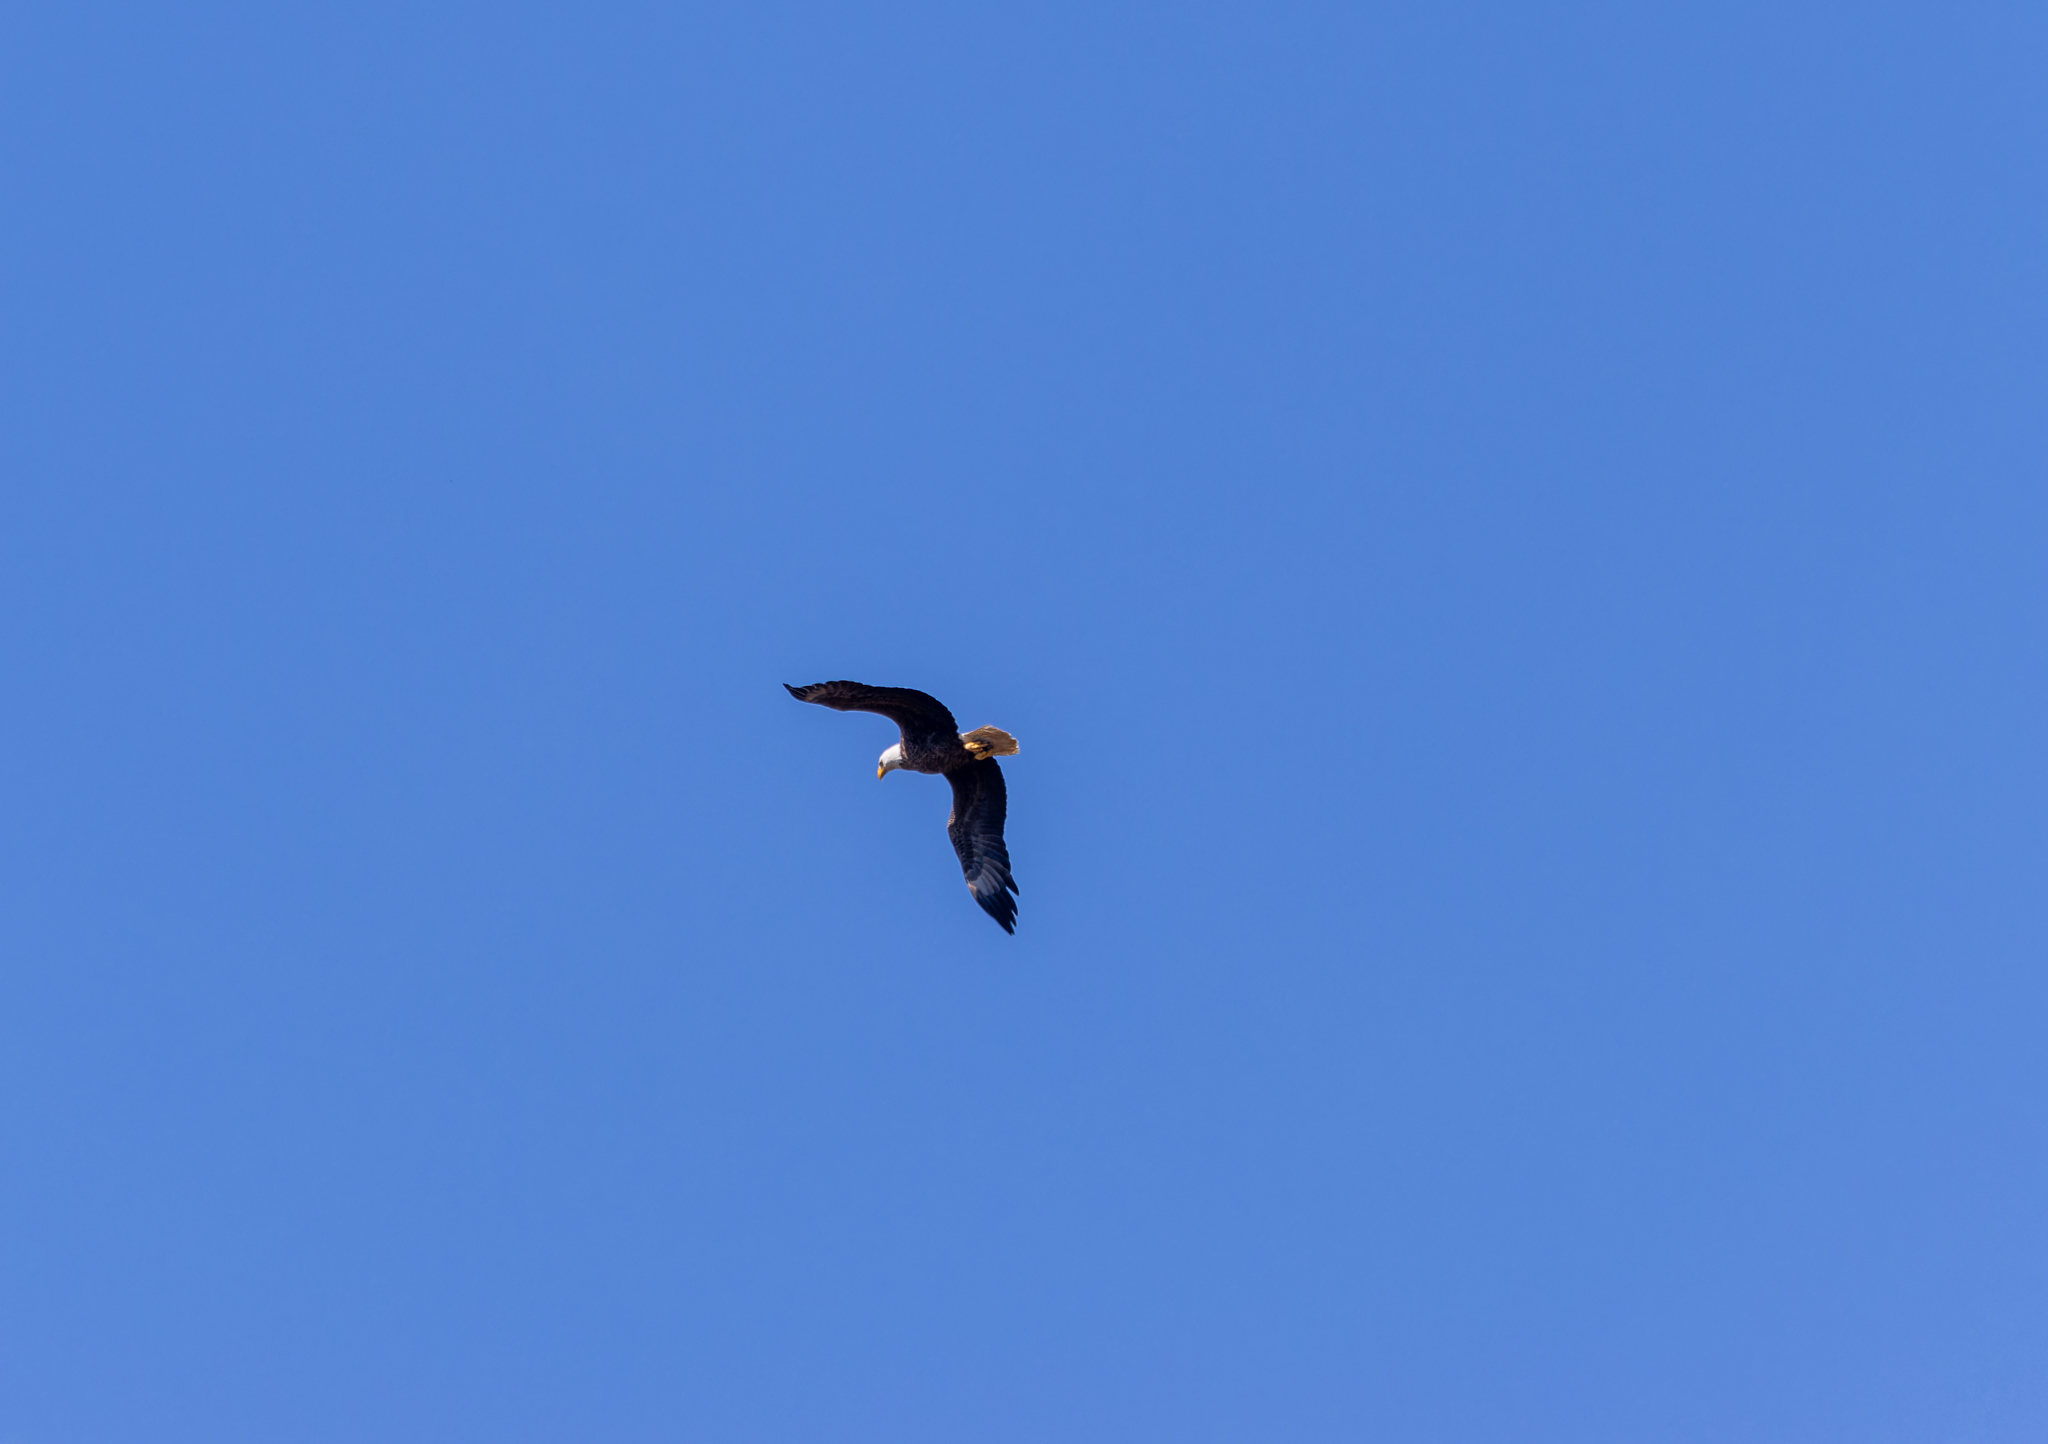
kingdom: Animalia
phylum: Chordata
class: Aves
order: Accipitriformes
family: Accipitridae
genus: Haliaeetus
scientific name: Haliaeetus leucocephalus
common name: Bald eagle
